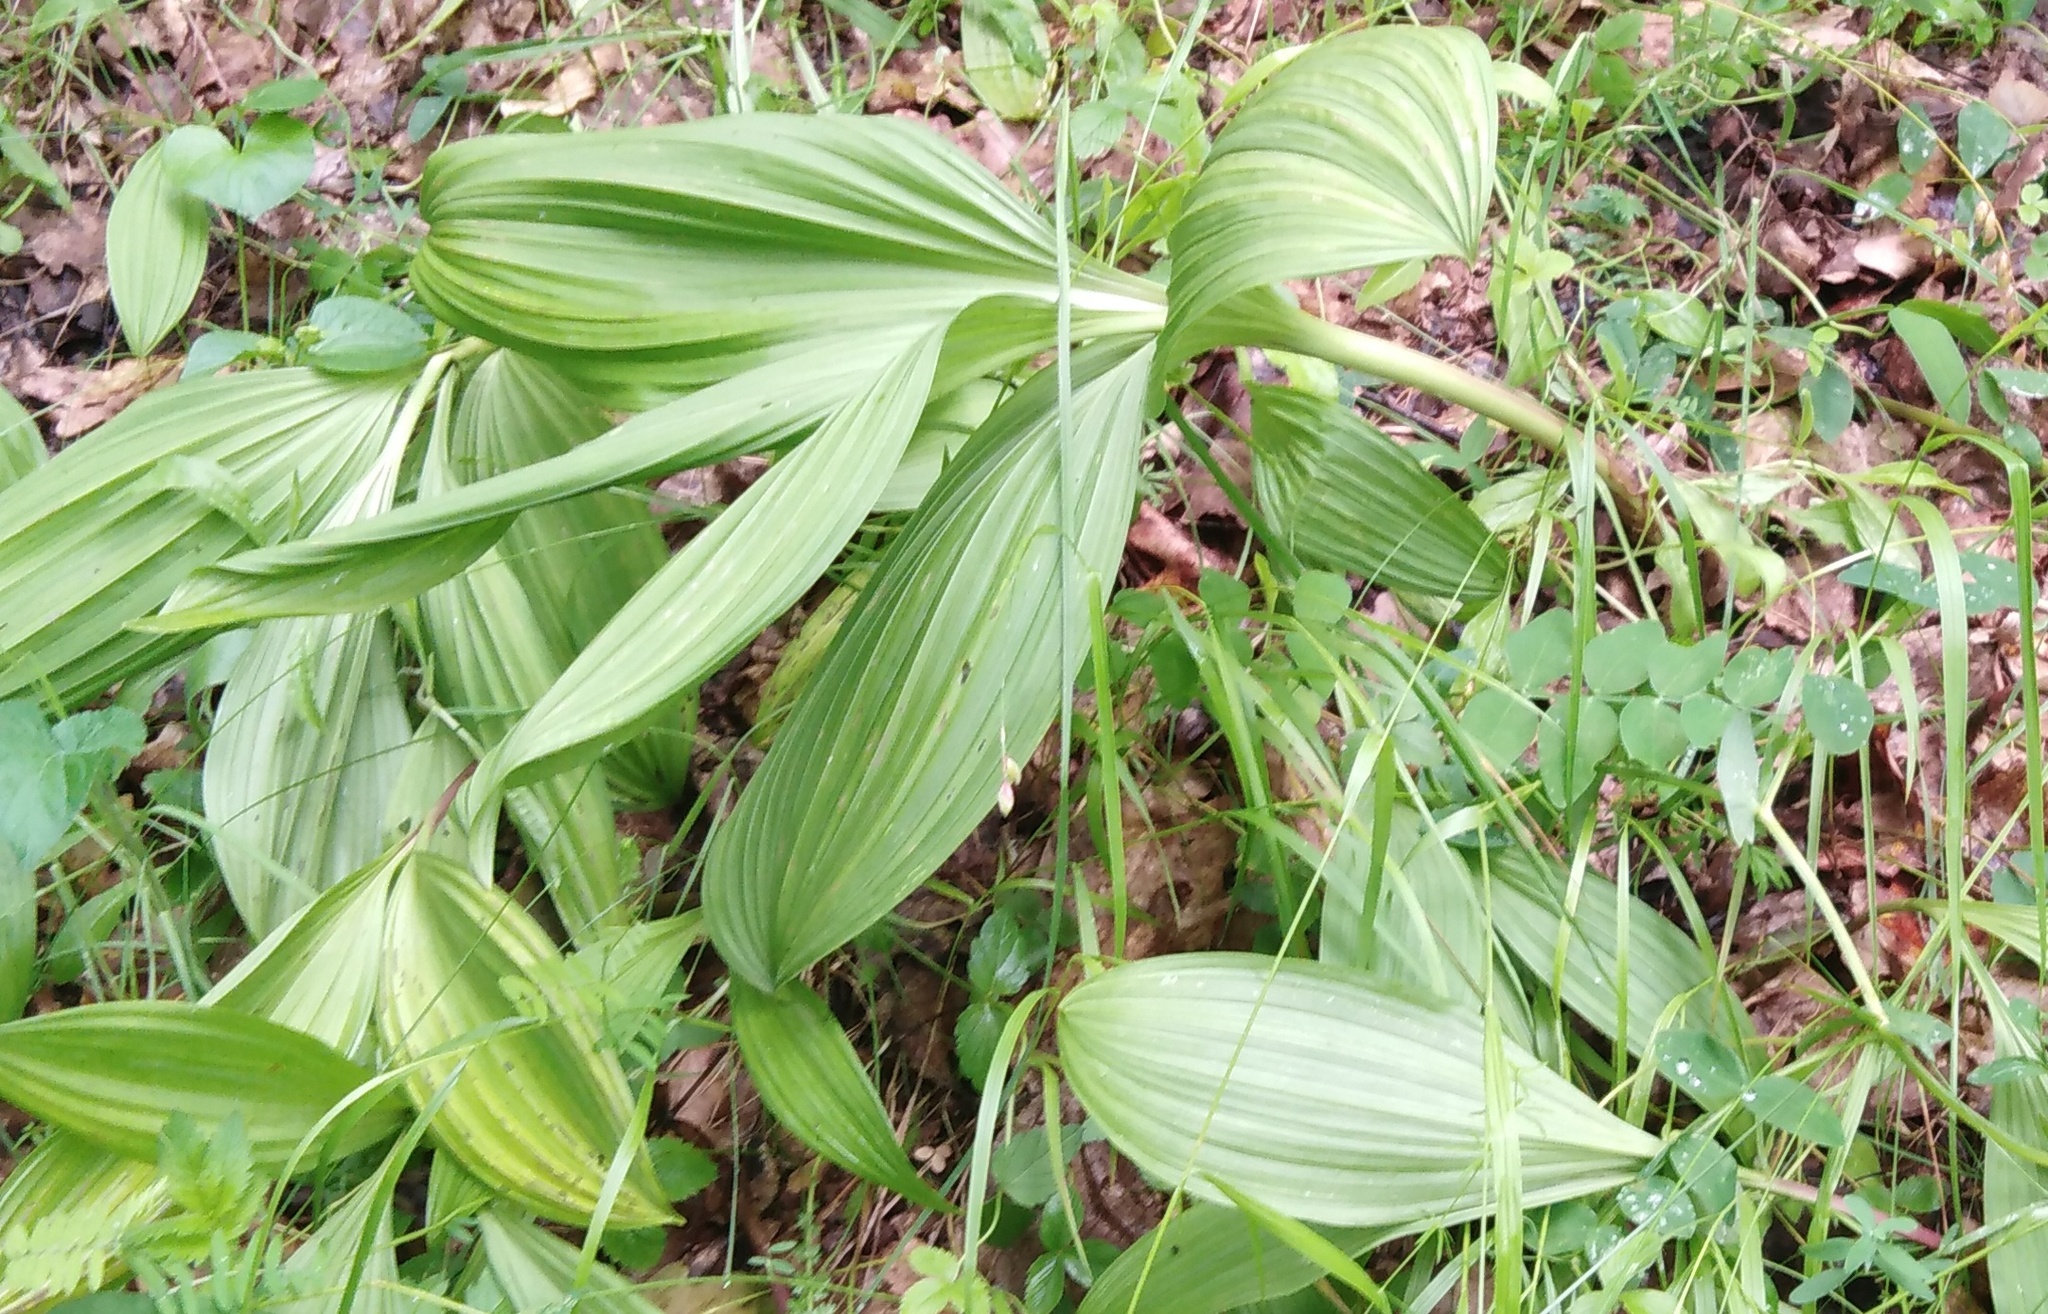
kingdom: Plantae
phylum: Tracheophyta
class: Liliopsida
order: Liliales
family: Melanthiaceae
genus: Veratrum
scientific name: Veratrum lobelianum
